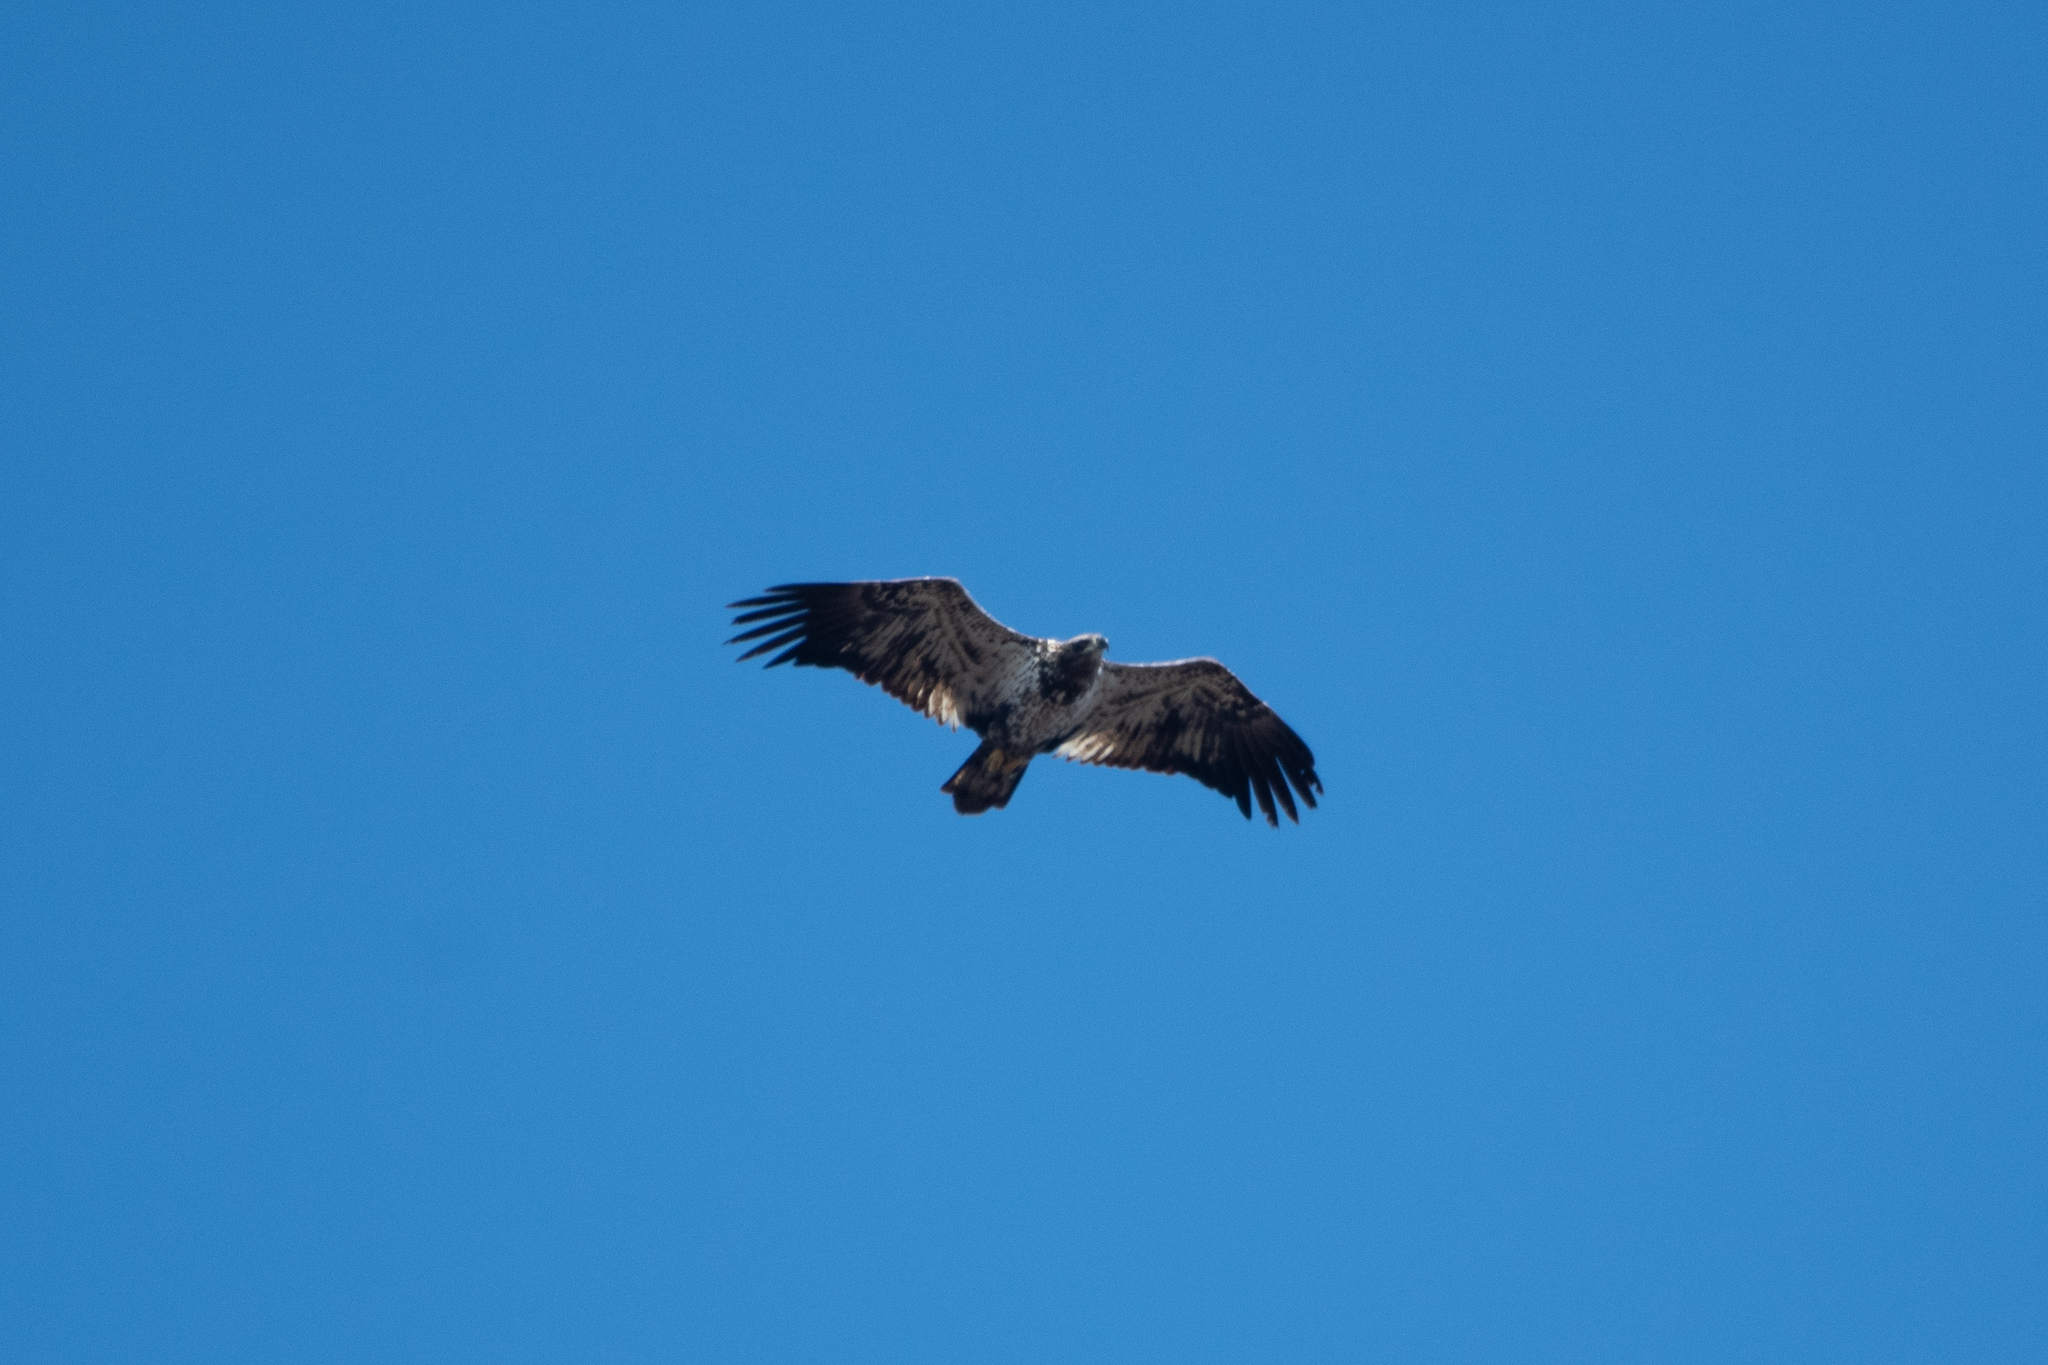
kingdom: Animalia
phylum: Chordata
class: Aves
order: Accipitriformes
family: Accipitridae
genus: Haliaeetus
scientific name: Haliaeetus leucocephalus
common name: Bald eagle
